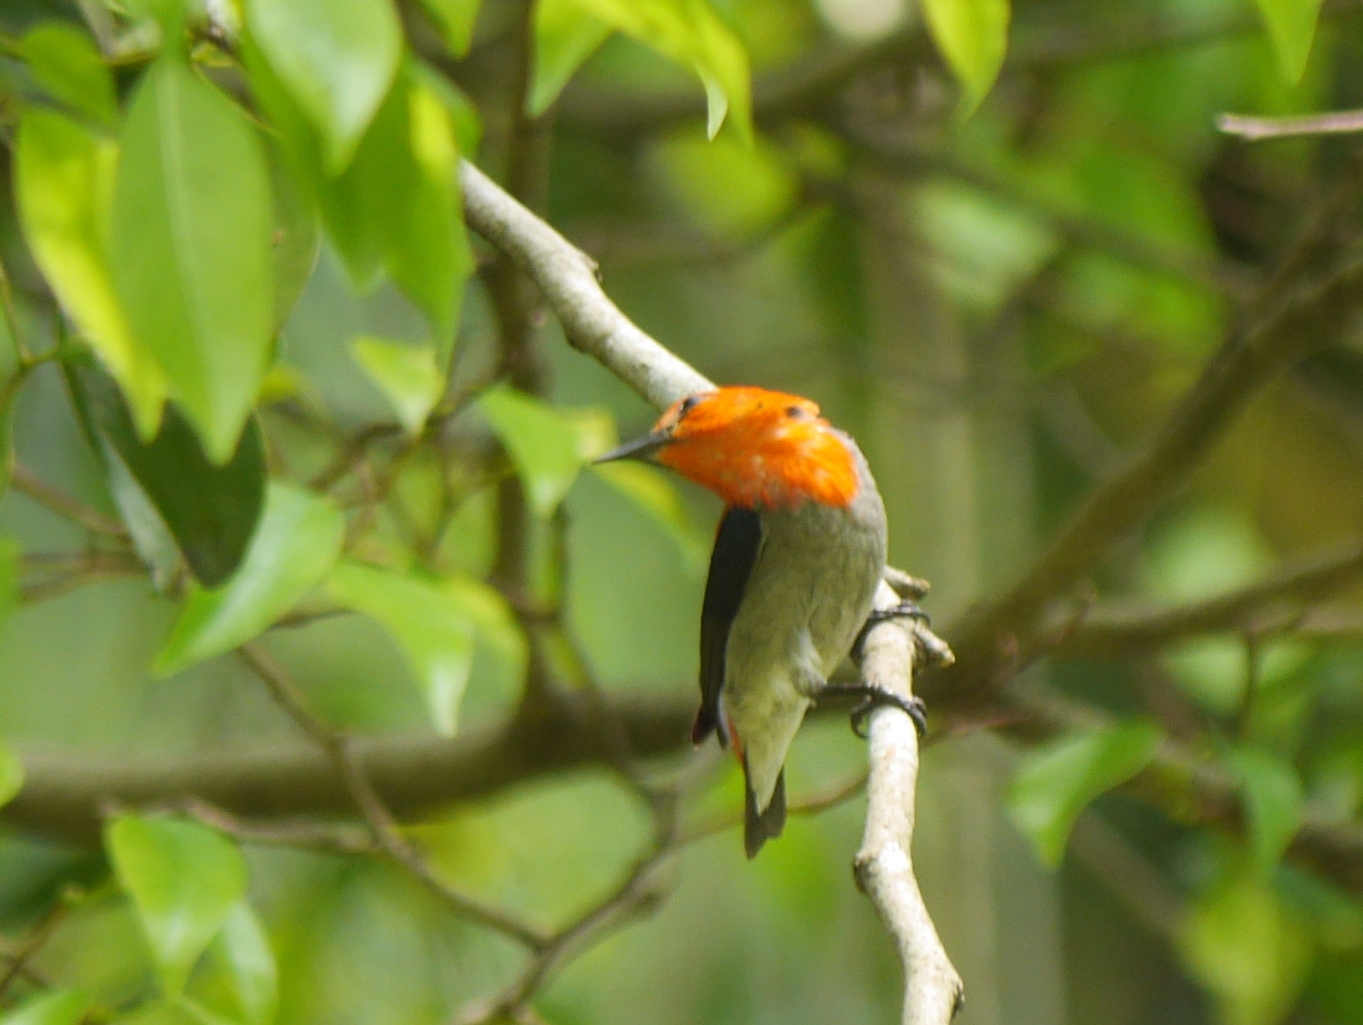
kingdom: Animalia
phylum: Chordata
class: Aves
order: Passeriformes
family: Dicaeidae
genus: Dicaeum
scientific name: Dicaeum trochileum
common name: Scarlet-headed flowerpecker
